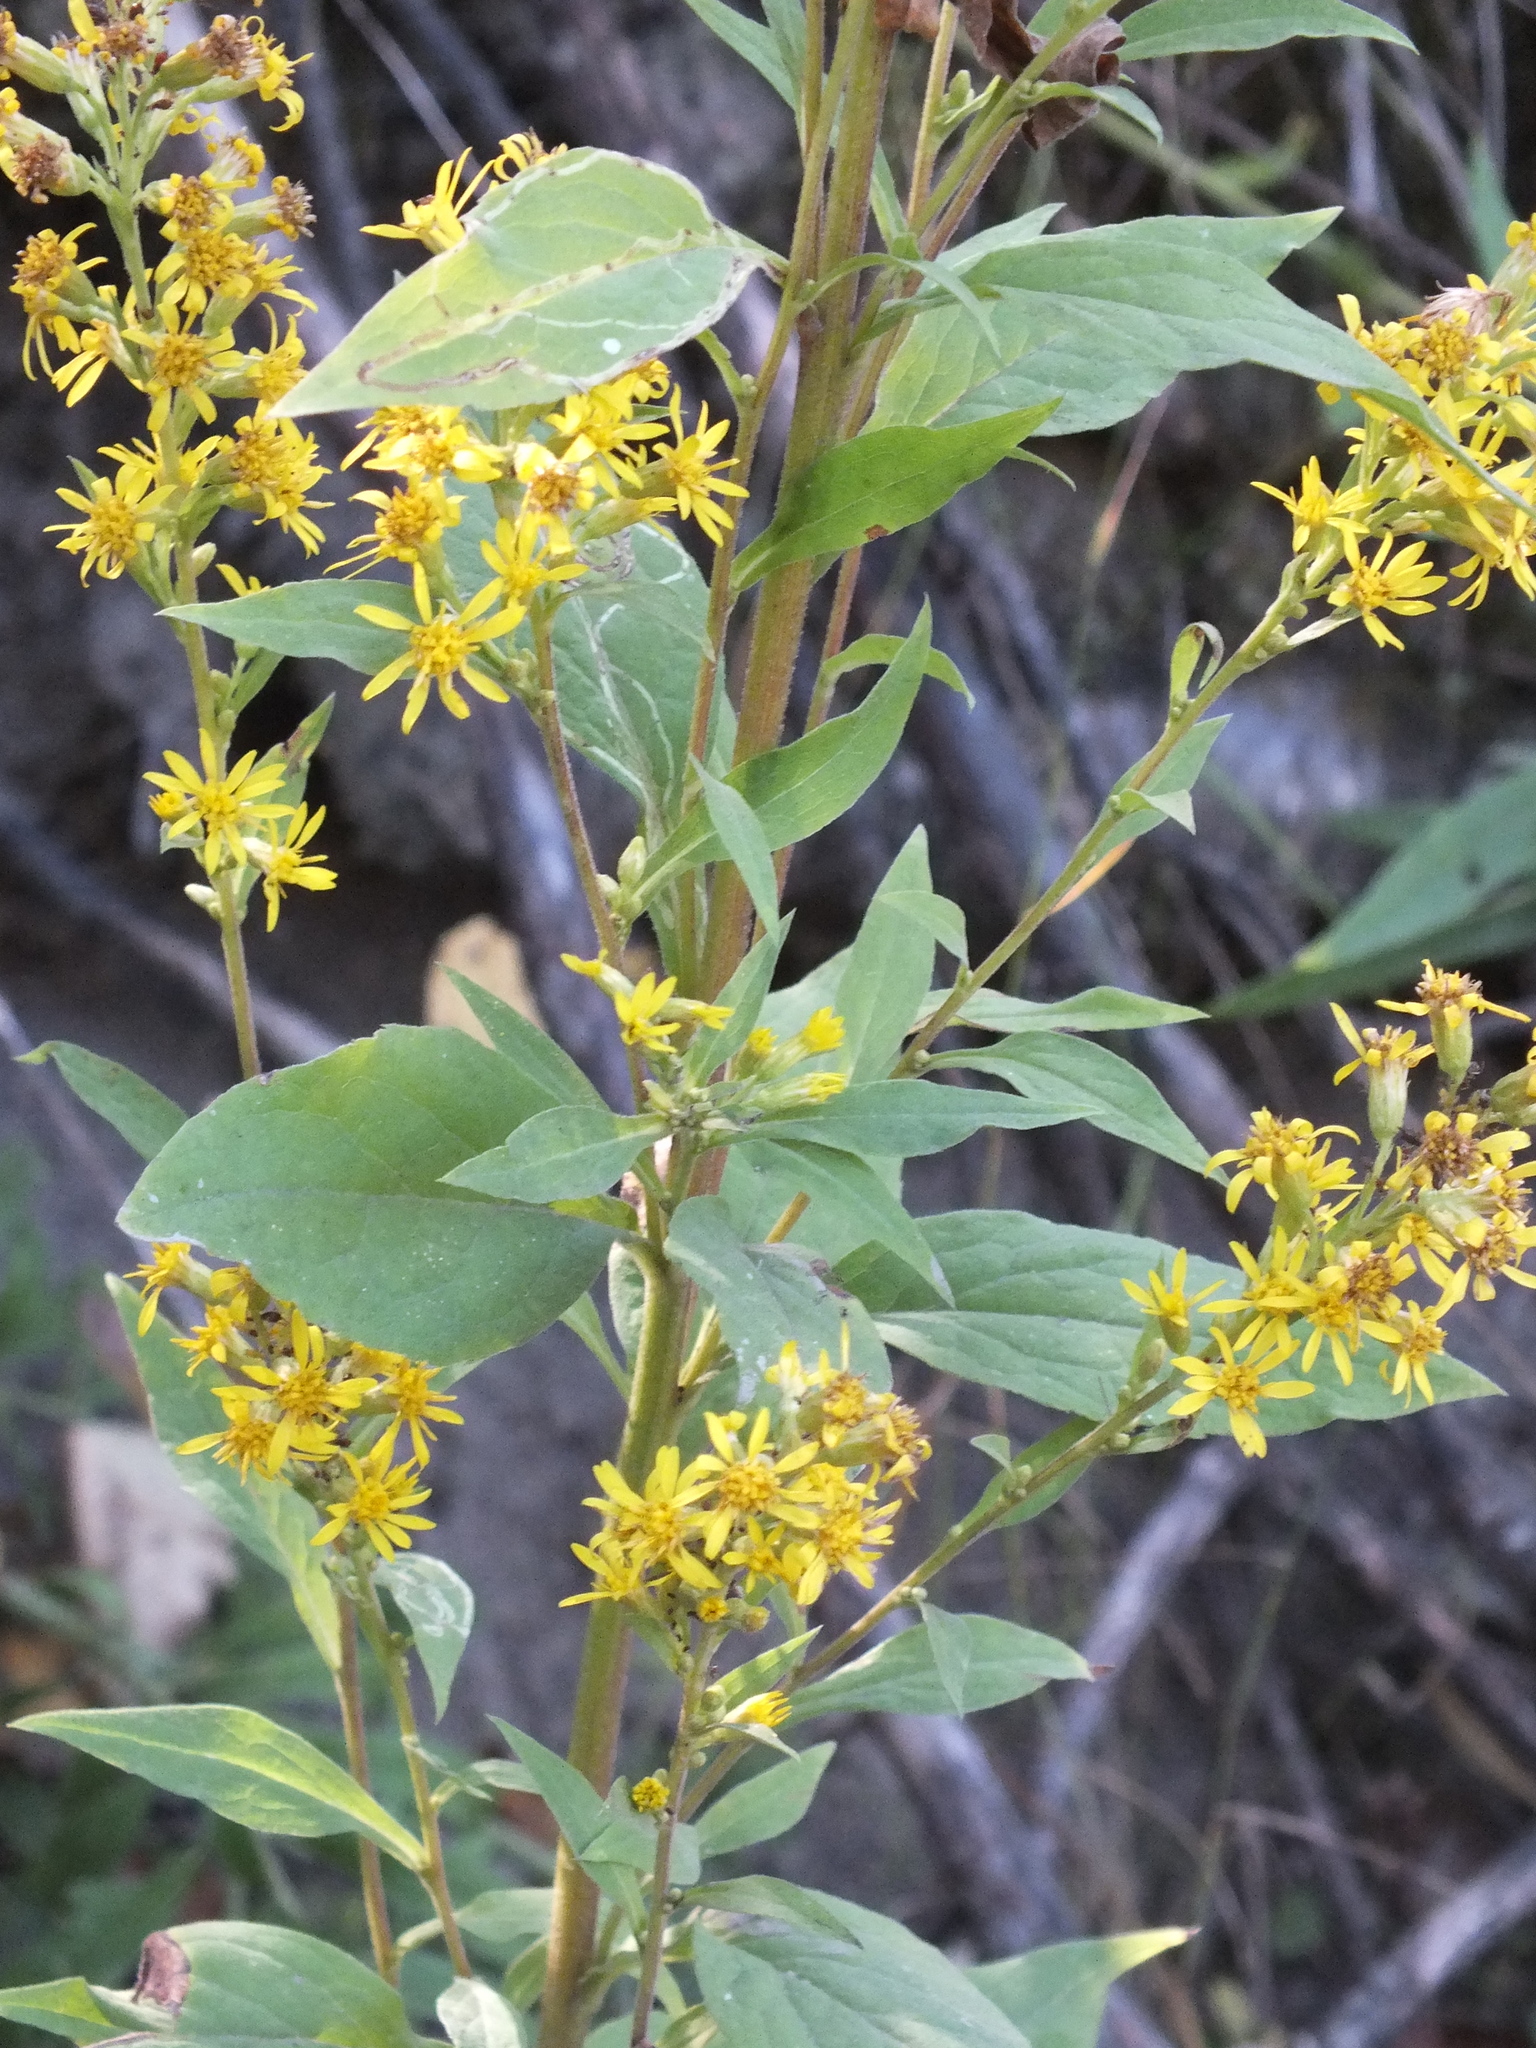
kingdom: Plantae
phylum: Tracheophyta
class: Magnoliopsida
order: Asterales
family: Asteraceae
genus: Solidago
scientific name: Solidago virgaurea
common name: Goldenrod
